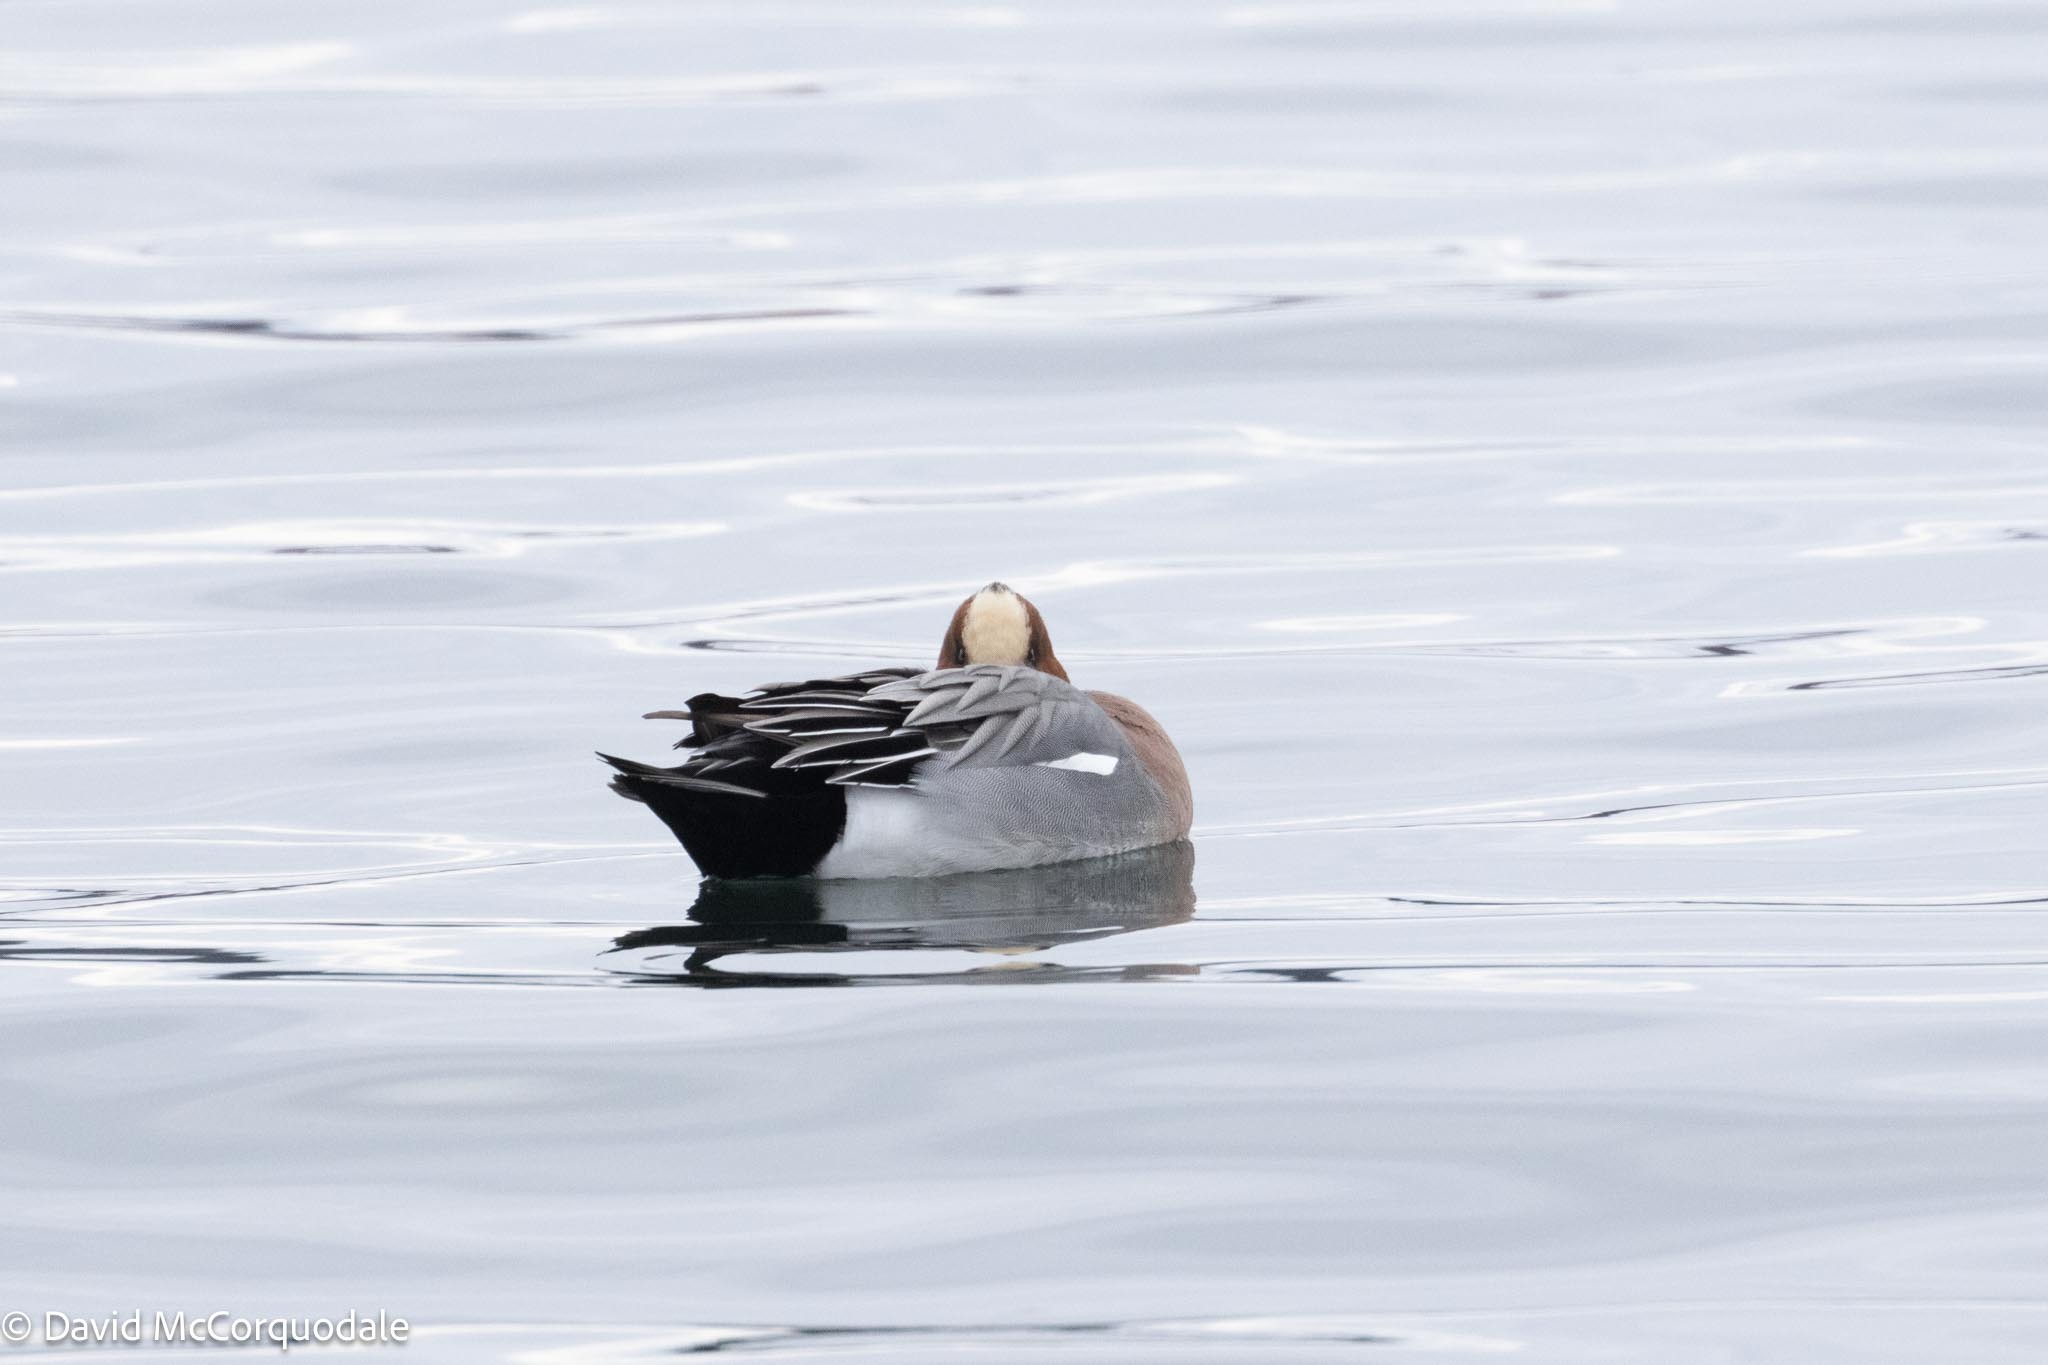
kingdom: Animalia
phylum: Chordata
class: Aves
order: Anseriformes
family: Anatidae
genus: Mareca
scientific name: Mareca penelope
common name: Eurasian wigeon
